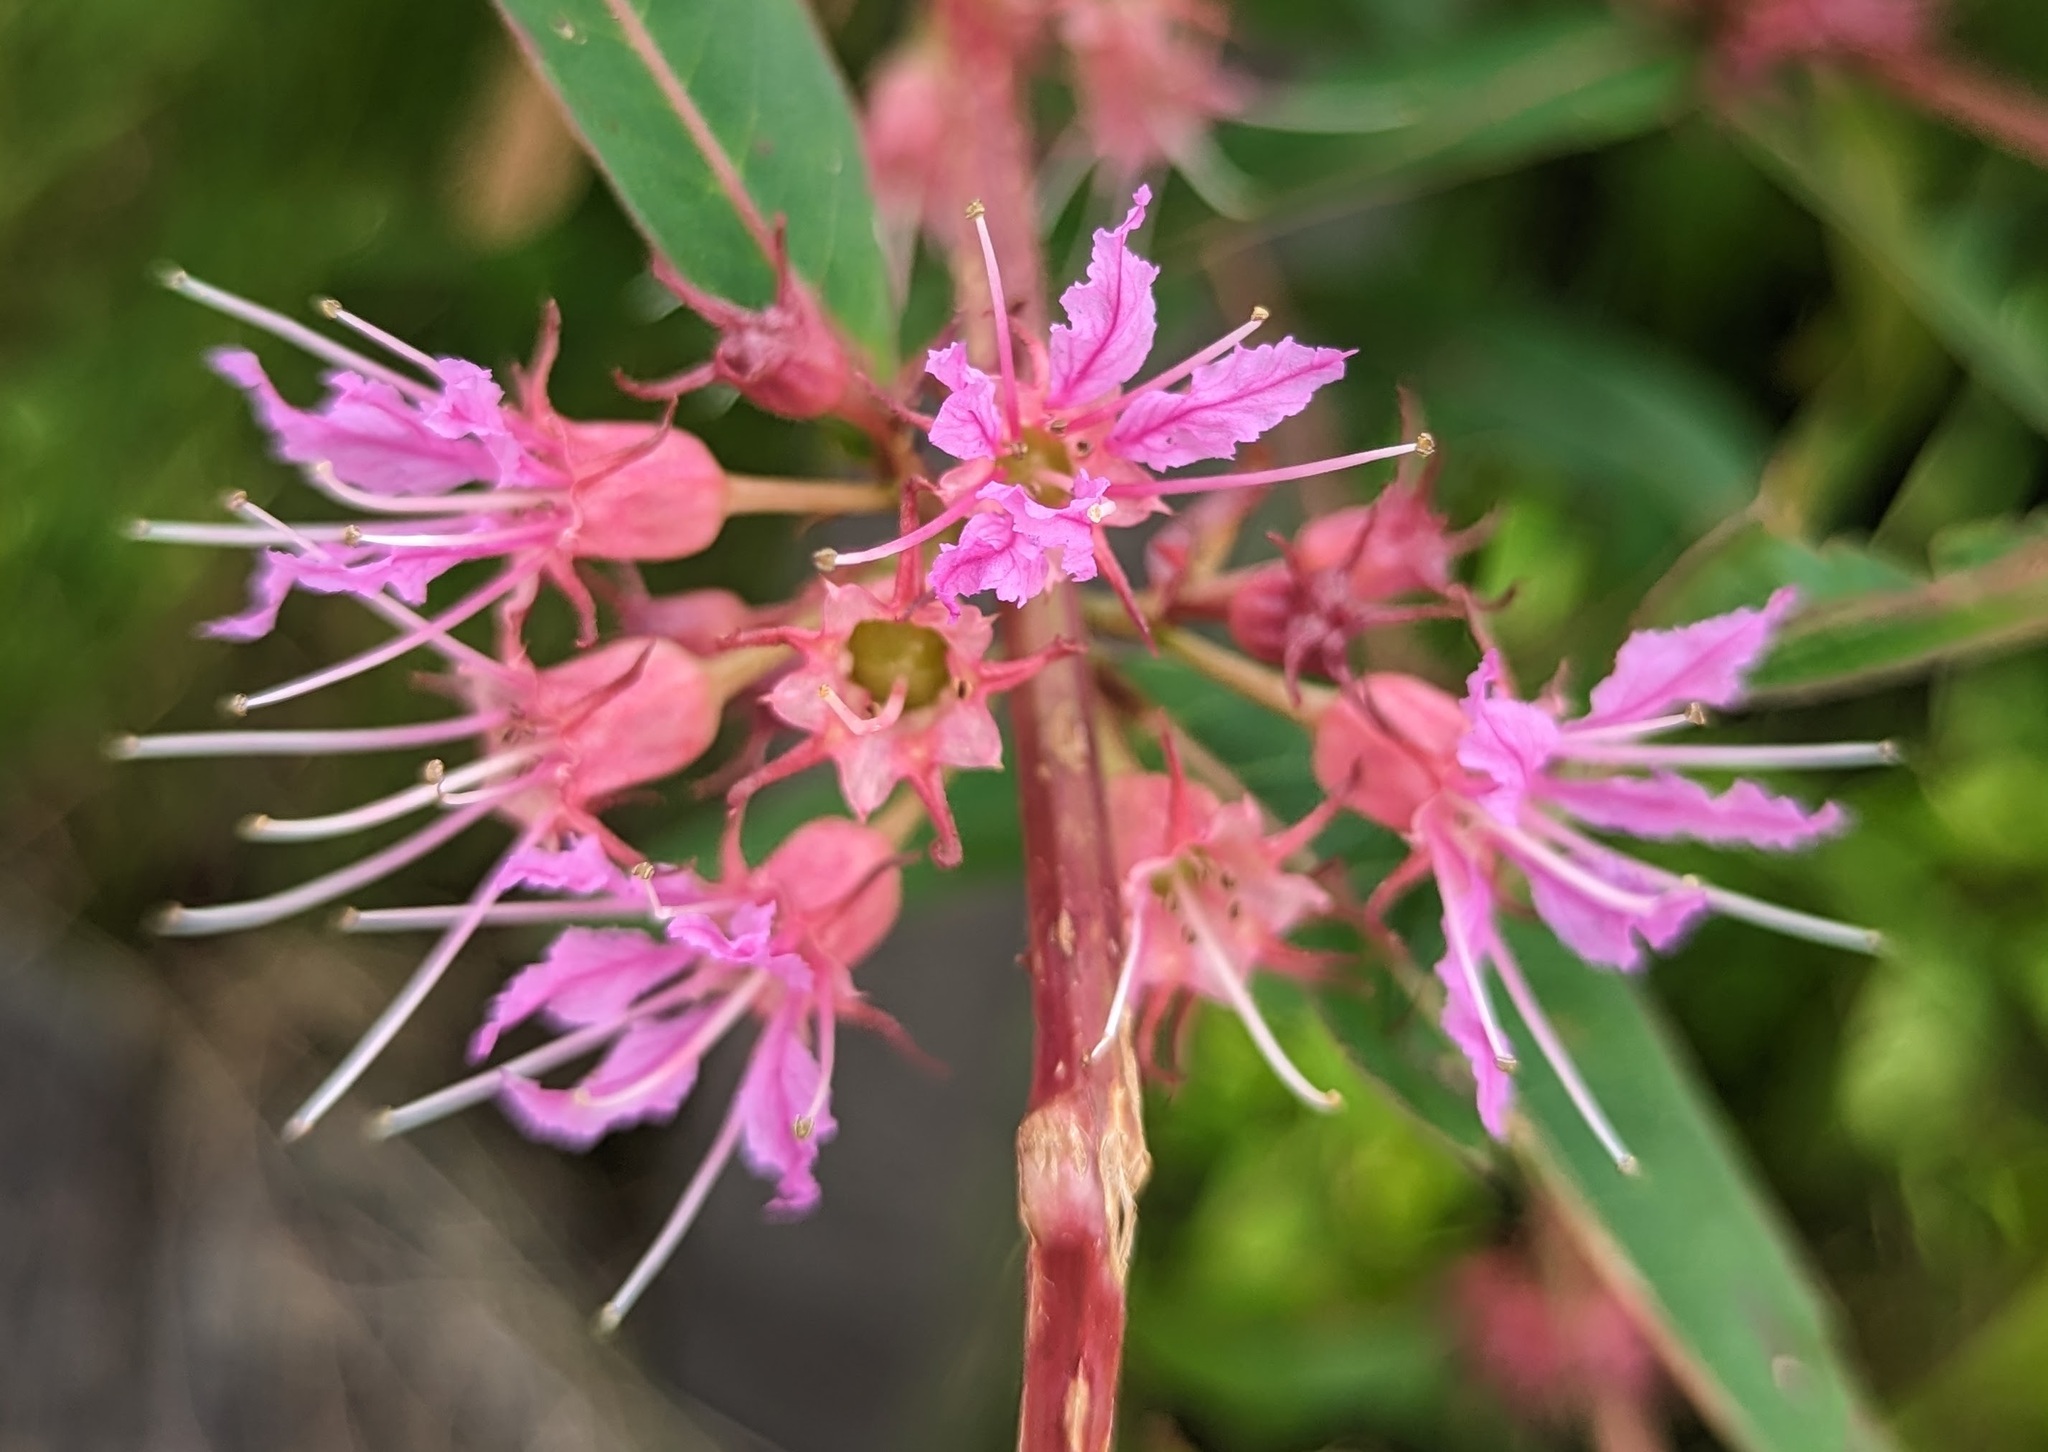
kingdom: Plantae
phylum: Tracheophyta
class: Magnoliopsida
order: Myrtales
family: Lythraceae
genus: Decodon
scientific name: Decodon verticillatus
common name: Hairy swamp loosestrife
